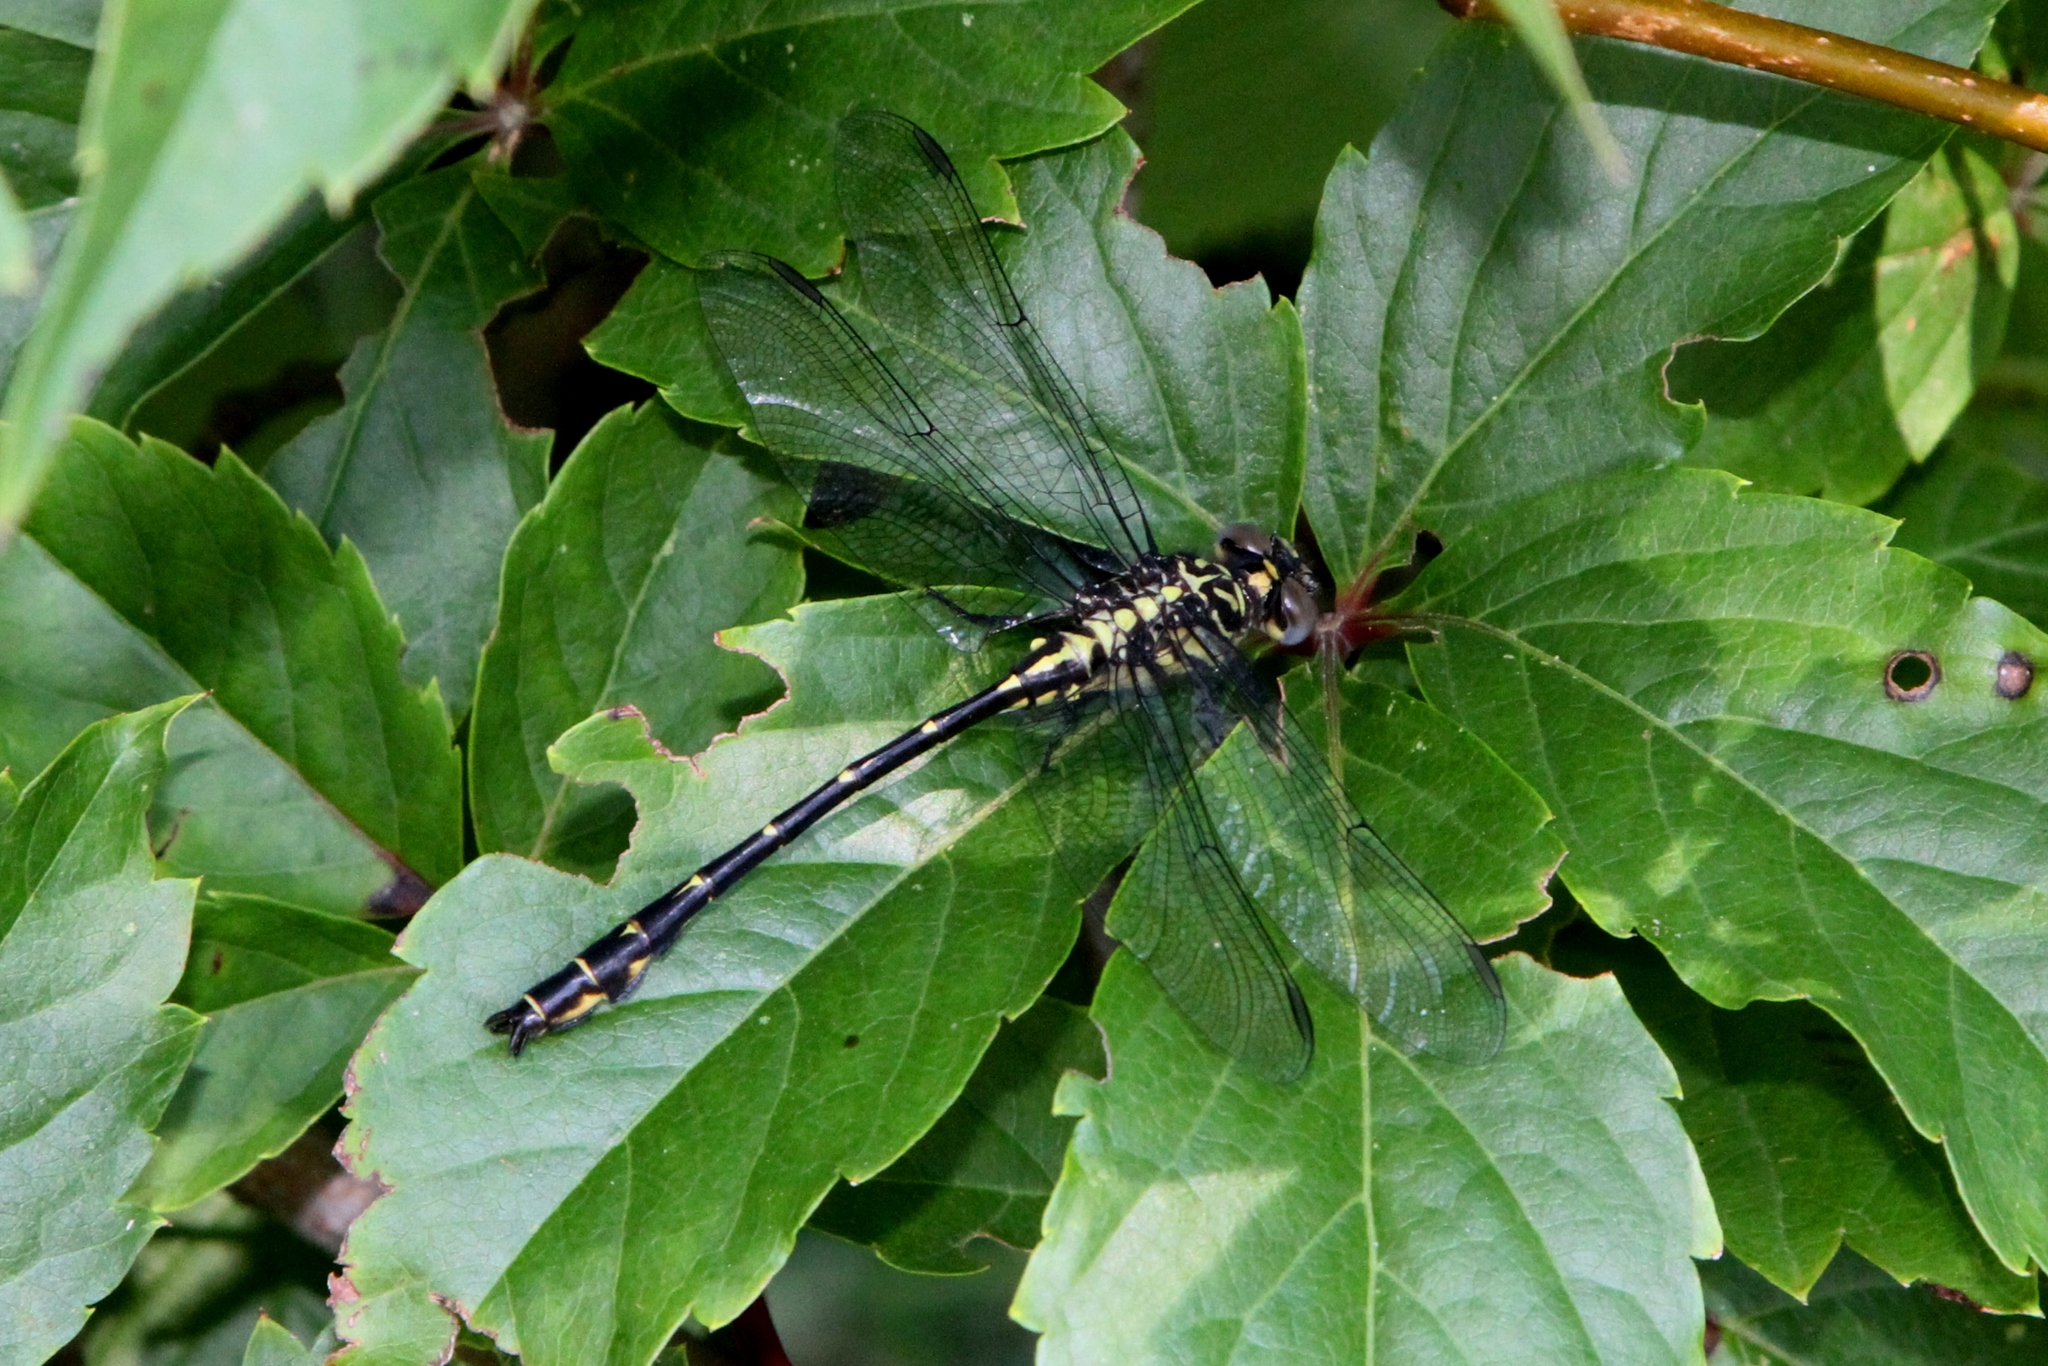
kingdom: Animalia
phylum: Arthropoda
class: Insecta
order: Odonata
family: Gomphidae
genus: Stylurus
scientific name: Stylurus notatus
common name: Elusive clubtail
